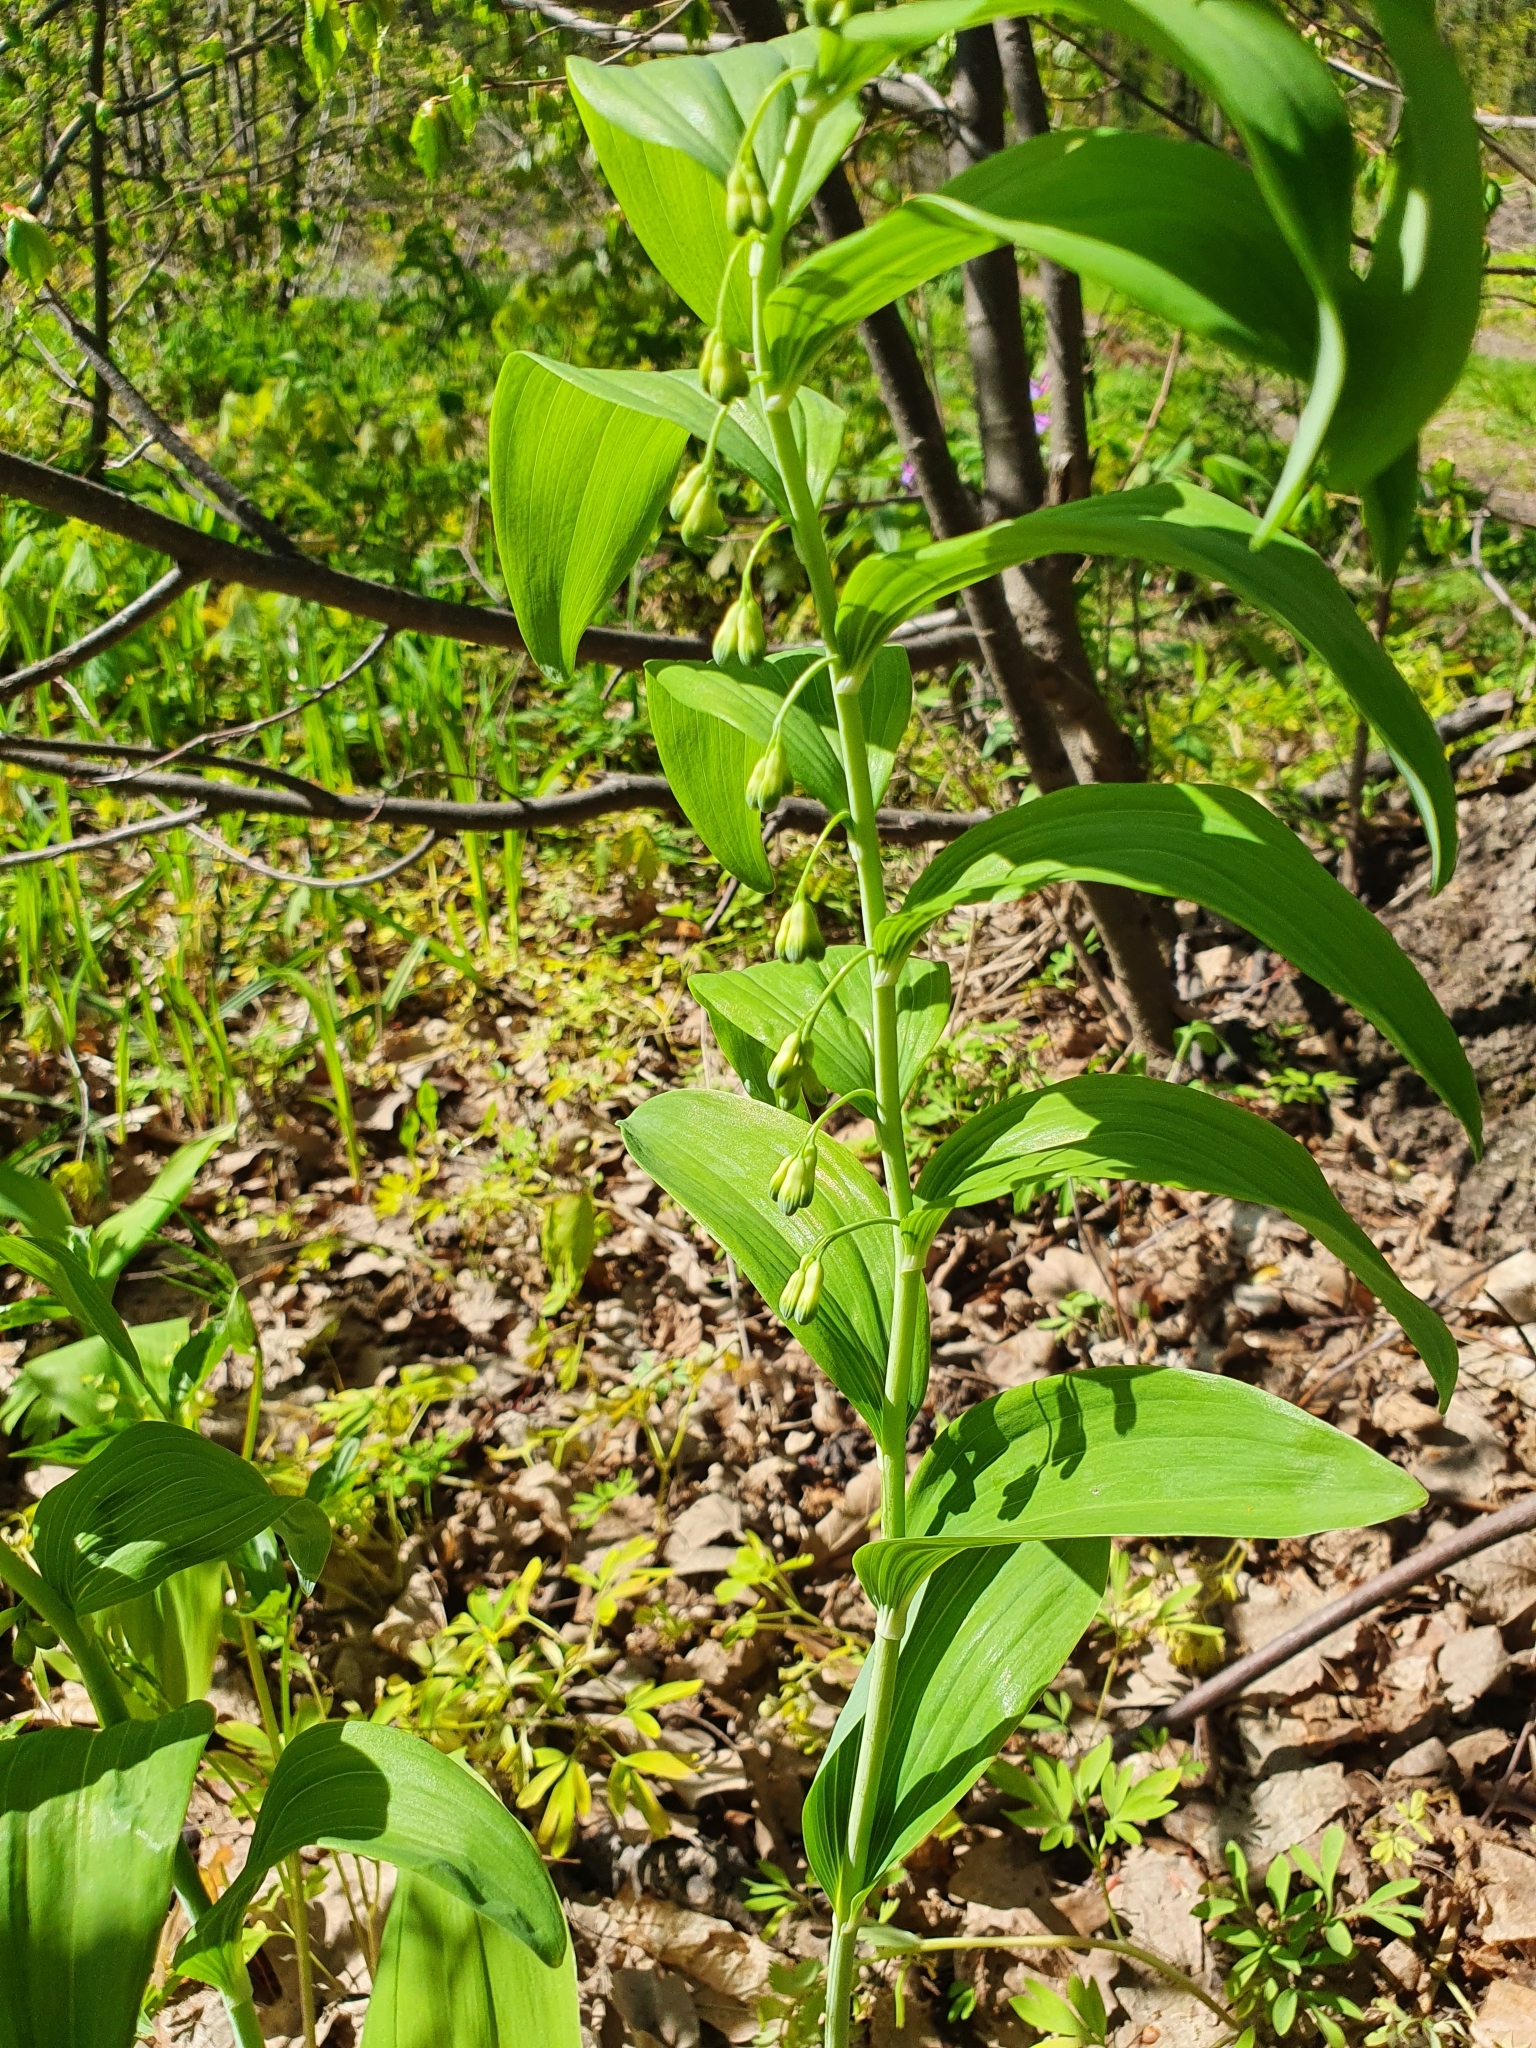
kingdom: Plantae
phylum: Tracheophyta
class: Liliopsida
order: Asparagales
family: Asparagaceae
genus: Polygonatum
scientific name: Polygonatum multiflorum
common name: Solomon's-seal
